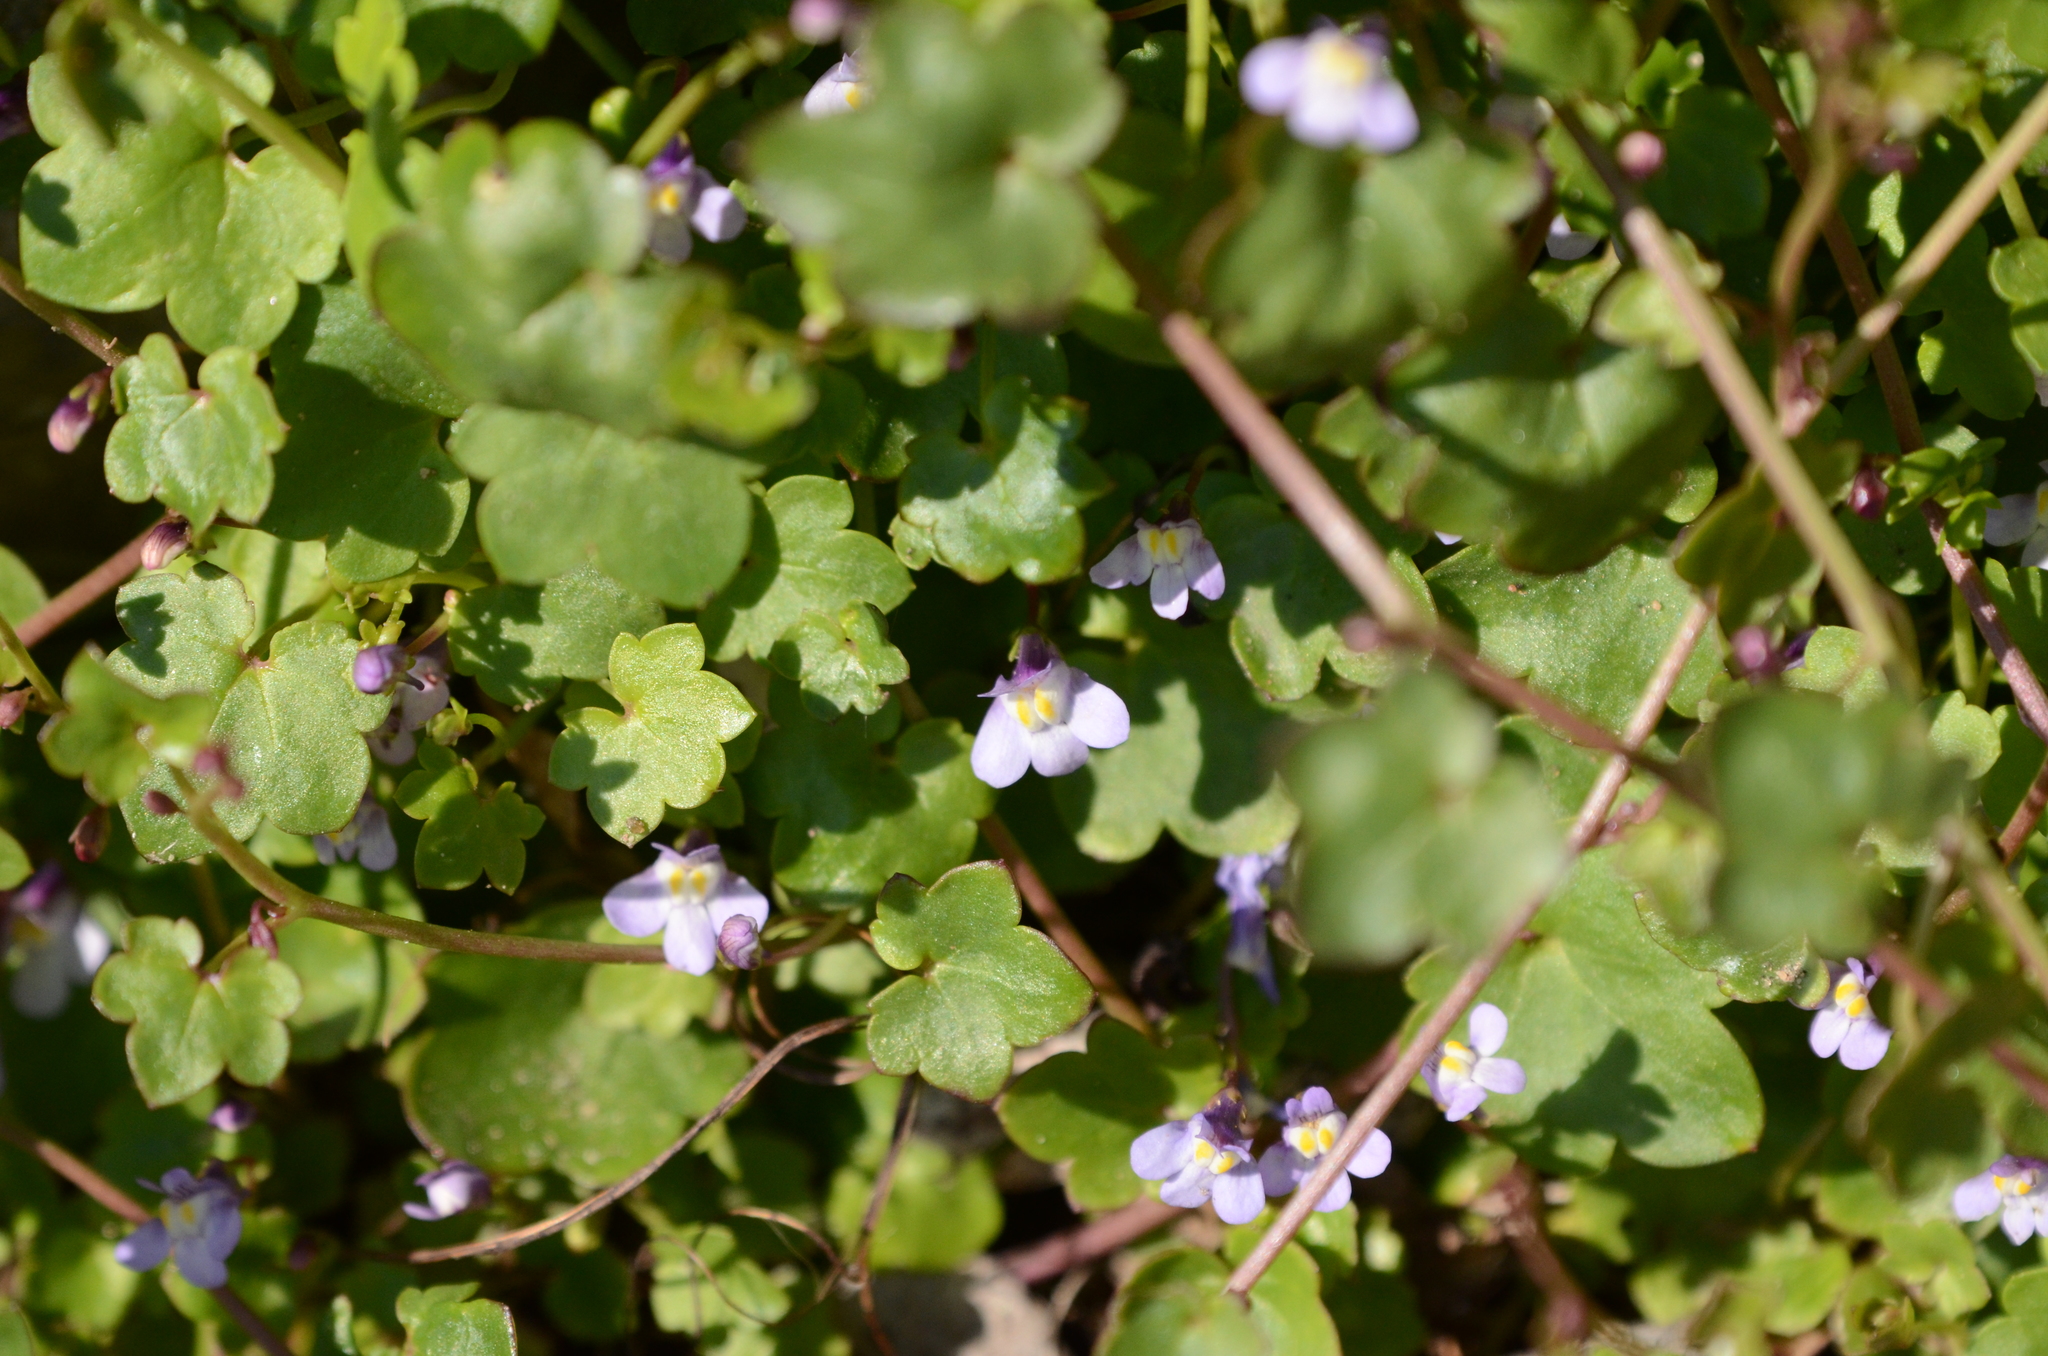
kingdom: Plantae
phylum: Tracheophyta
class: Magnoliopsida
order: Lamiales
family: Plantaginaceae
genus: Cymbalaria
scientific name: Cymbalaria muralis
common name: Ivy-leaved toadflax
